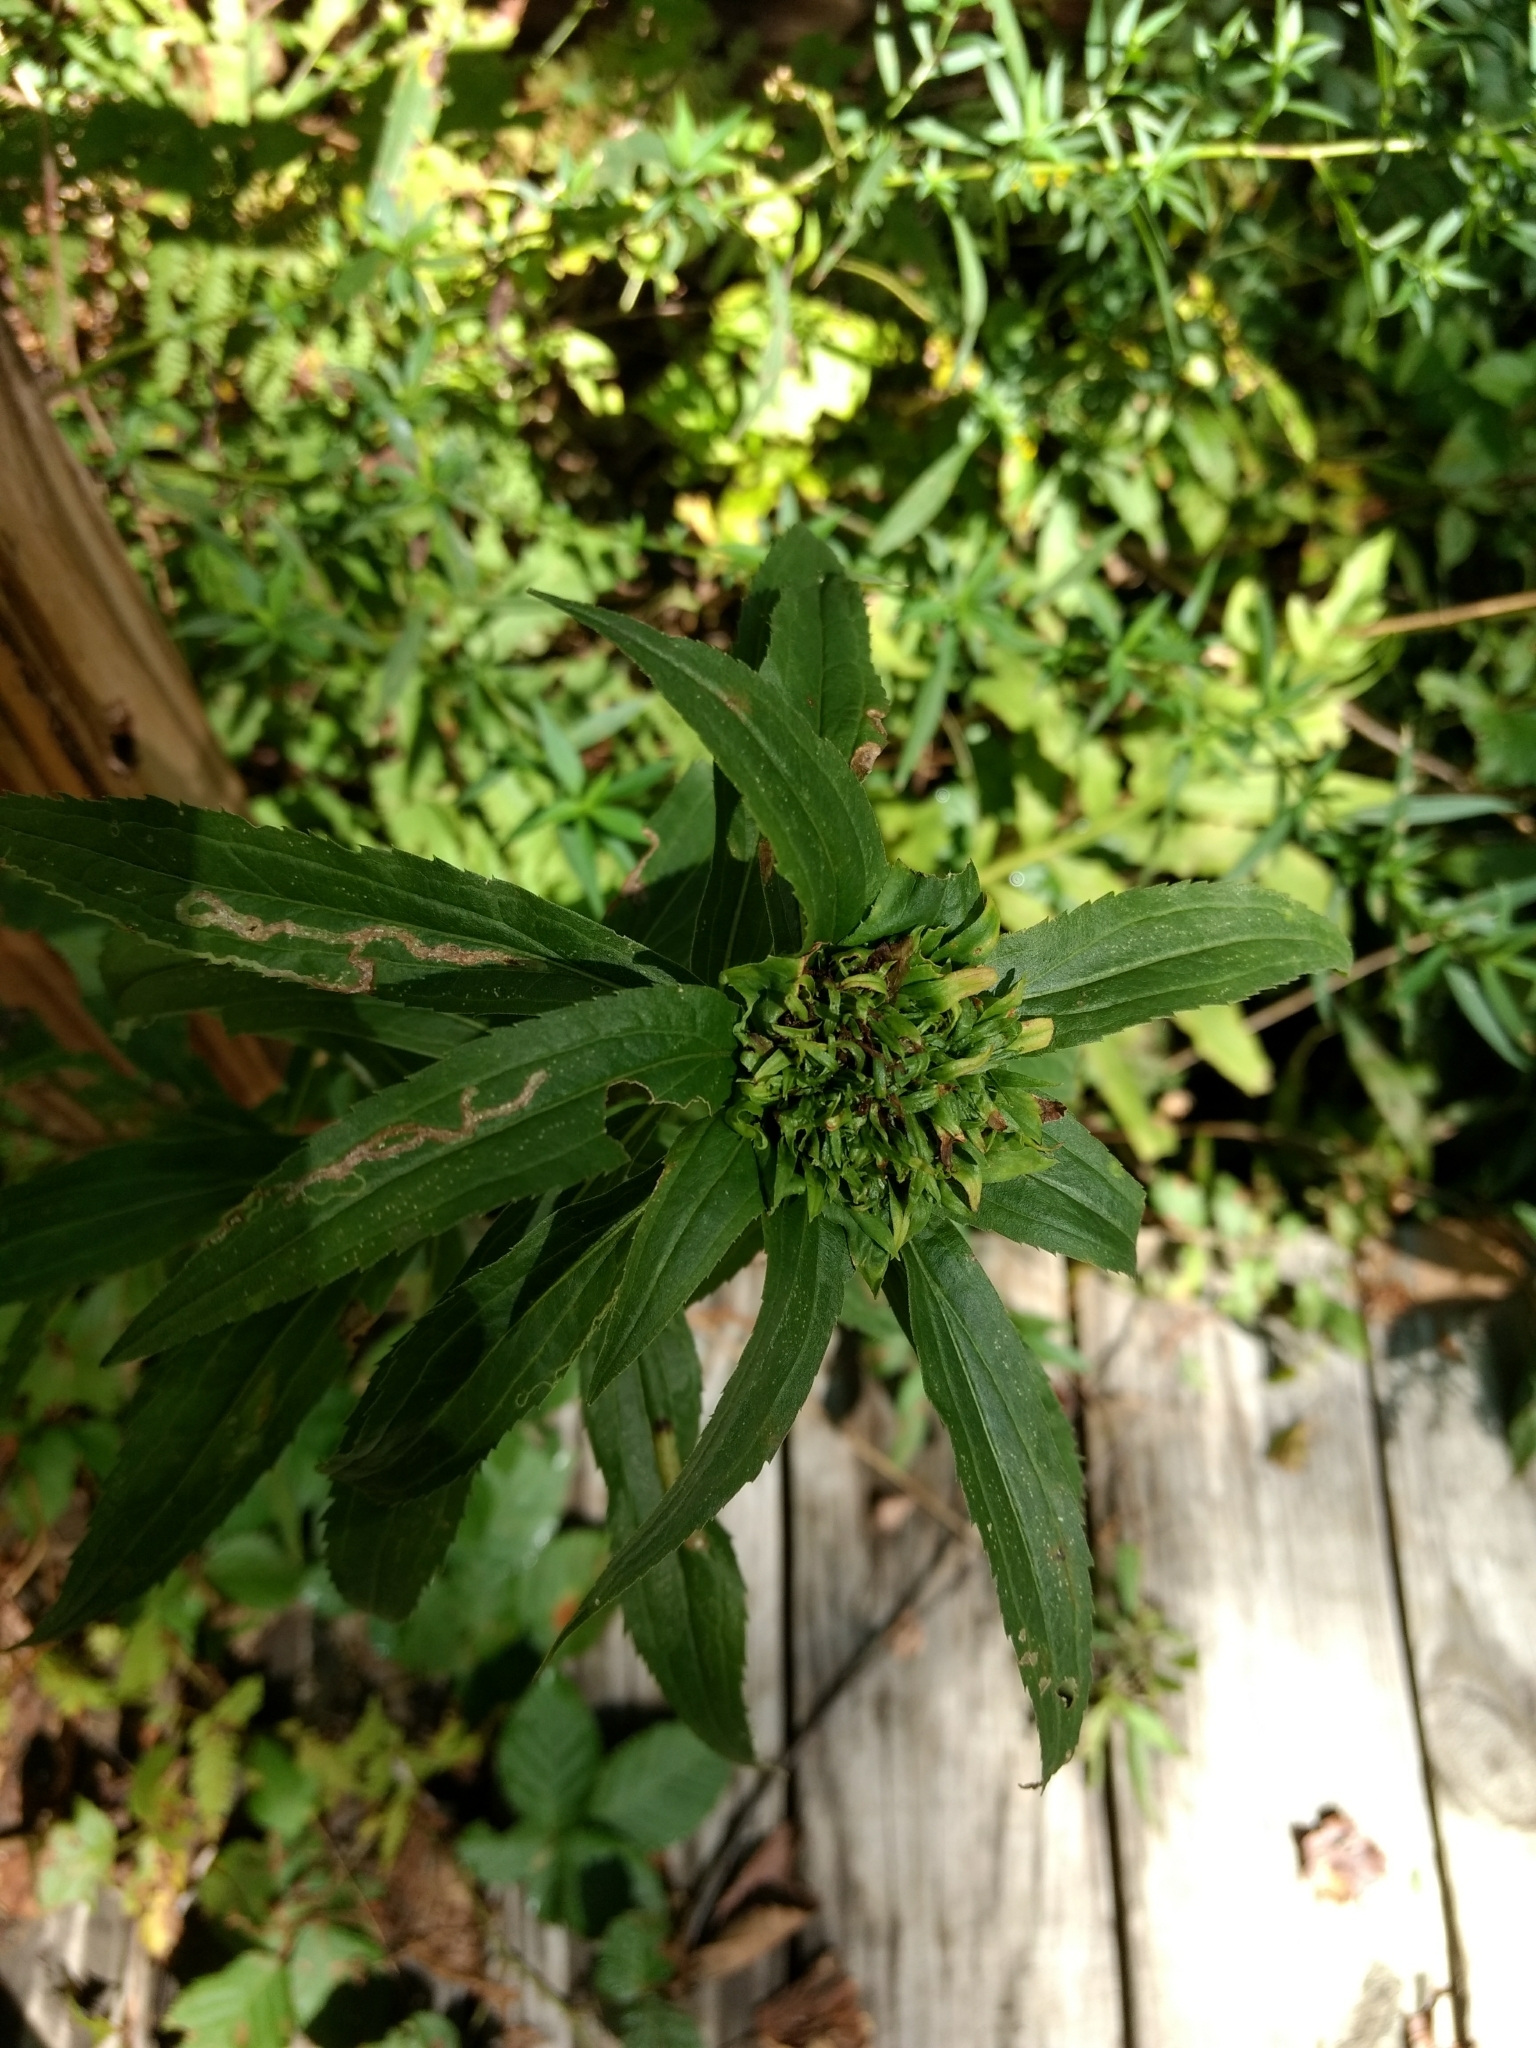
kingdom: Animalia
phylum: Arthropoda
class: Insecta
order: Diptera
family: Cecidomyiidae
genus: Rhopalomyia
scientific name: Rhopalomyia capitata
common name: Giant goldenrod bunch gall midge
